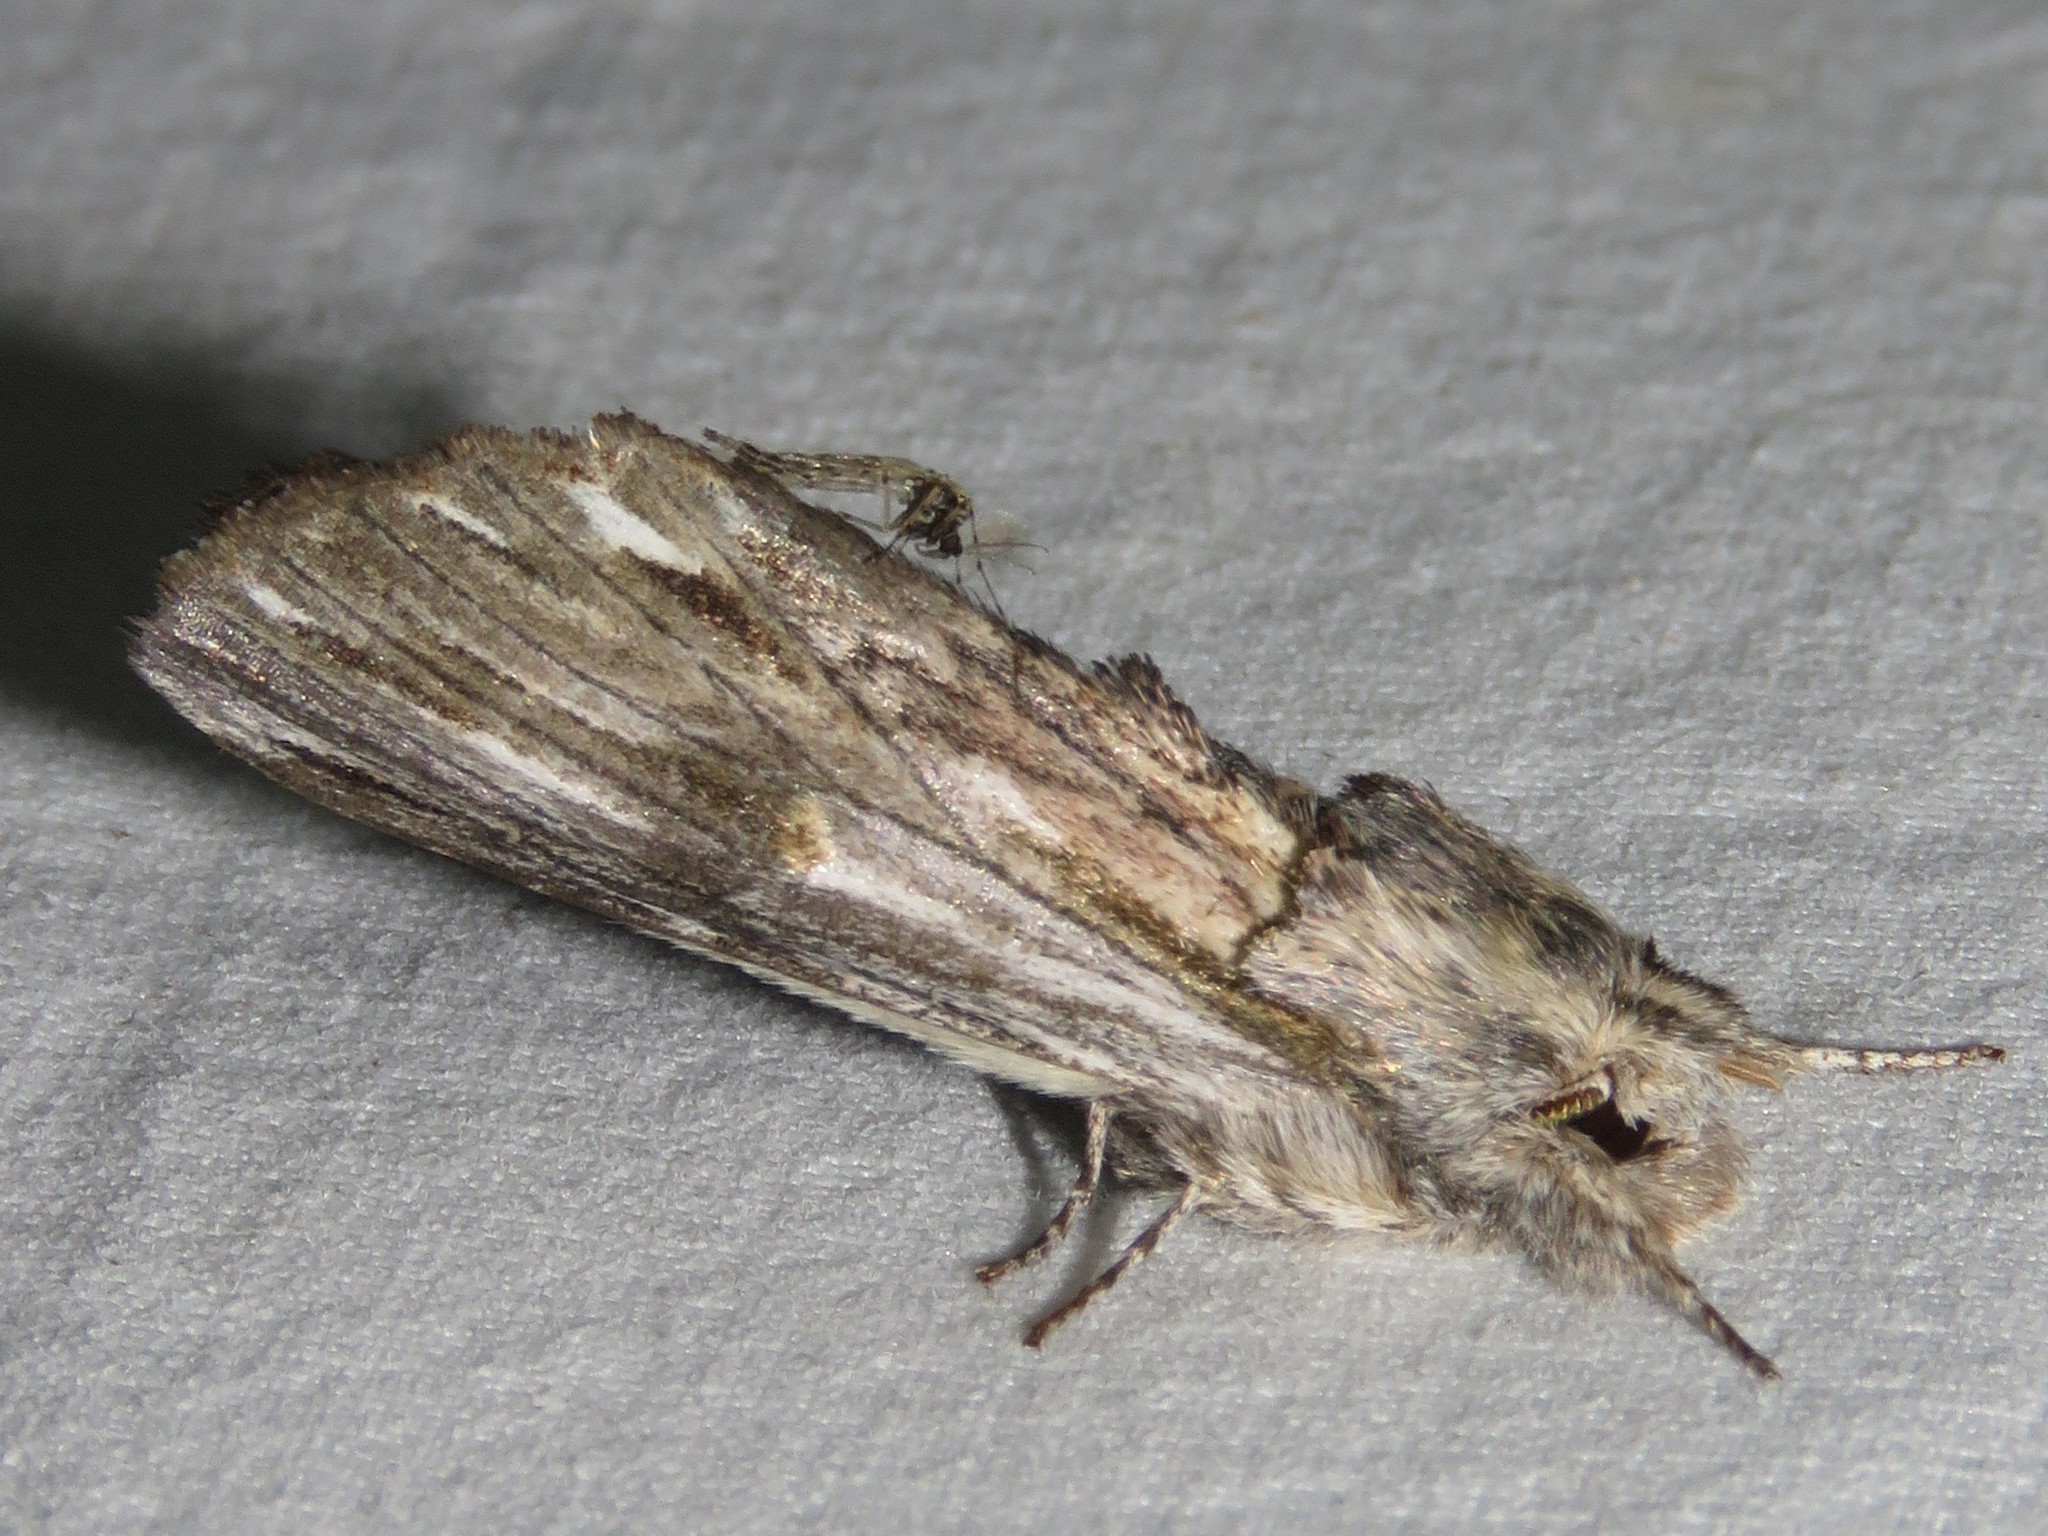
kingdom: Animalia
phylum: Arthropoda
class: Insecta
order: Lepidoptera
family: Notodontidae
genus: Oligocentria
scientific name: Oligocentria Ianassa lignicolor
